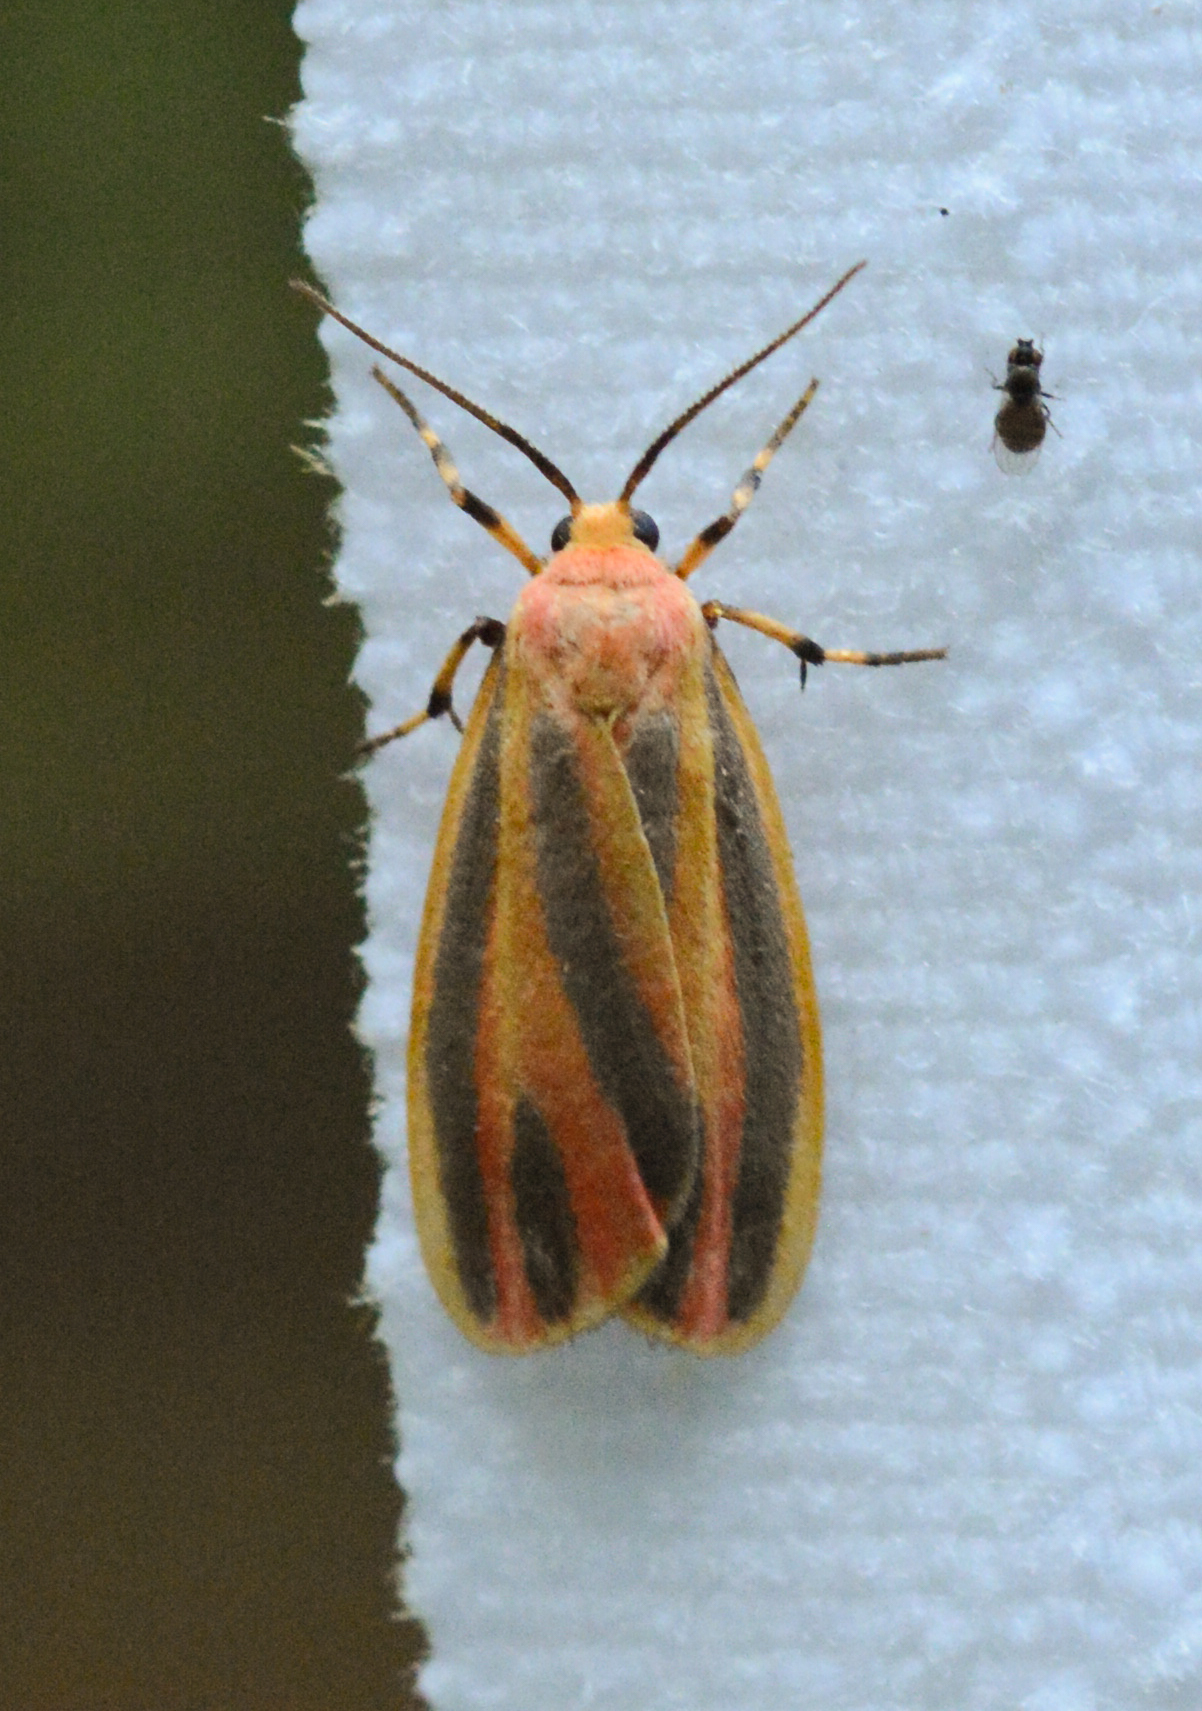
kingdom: Animalia
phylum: Arthropoda
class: Insecta
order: Lepidoptera
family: Erebidae
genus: Hypoprepia
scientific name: Hypoprepia fucosa
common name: Painted lichen moth
